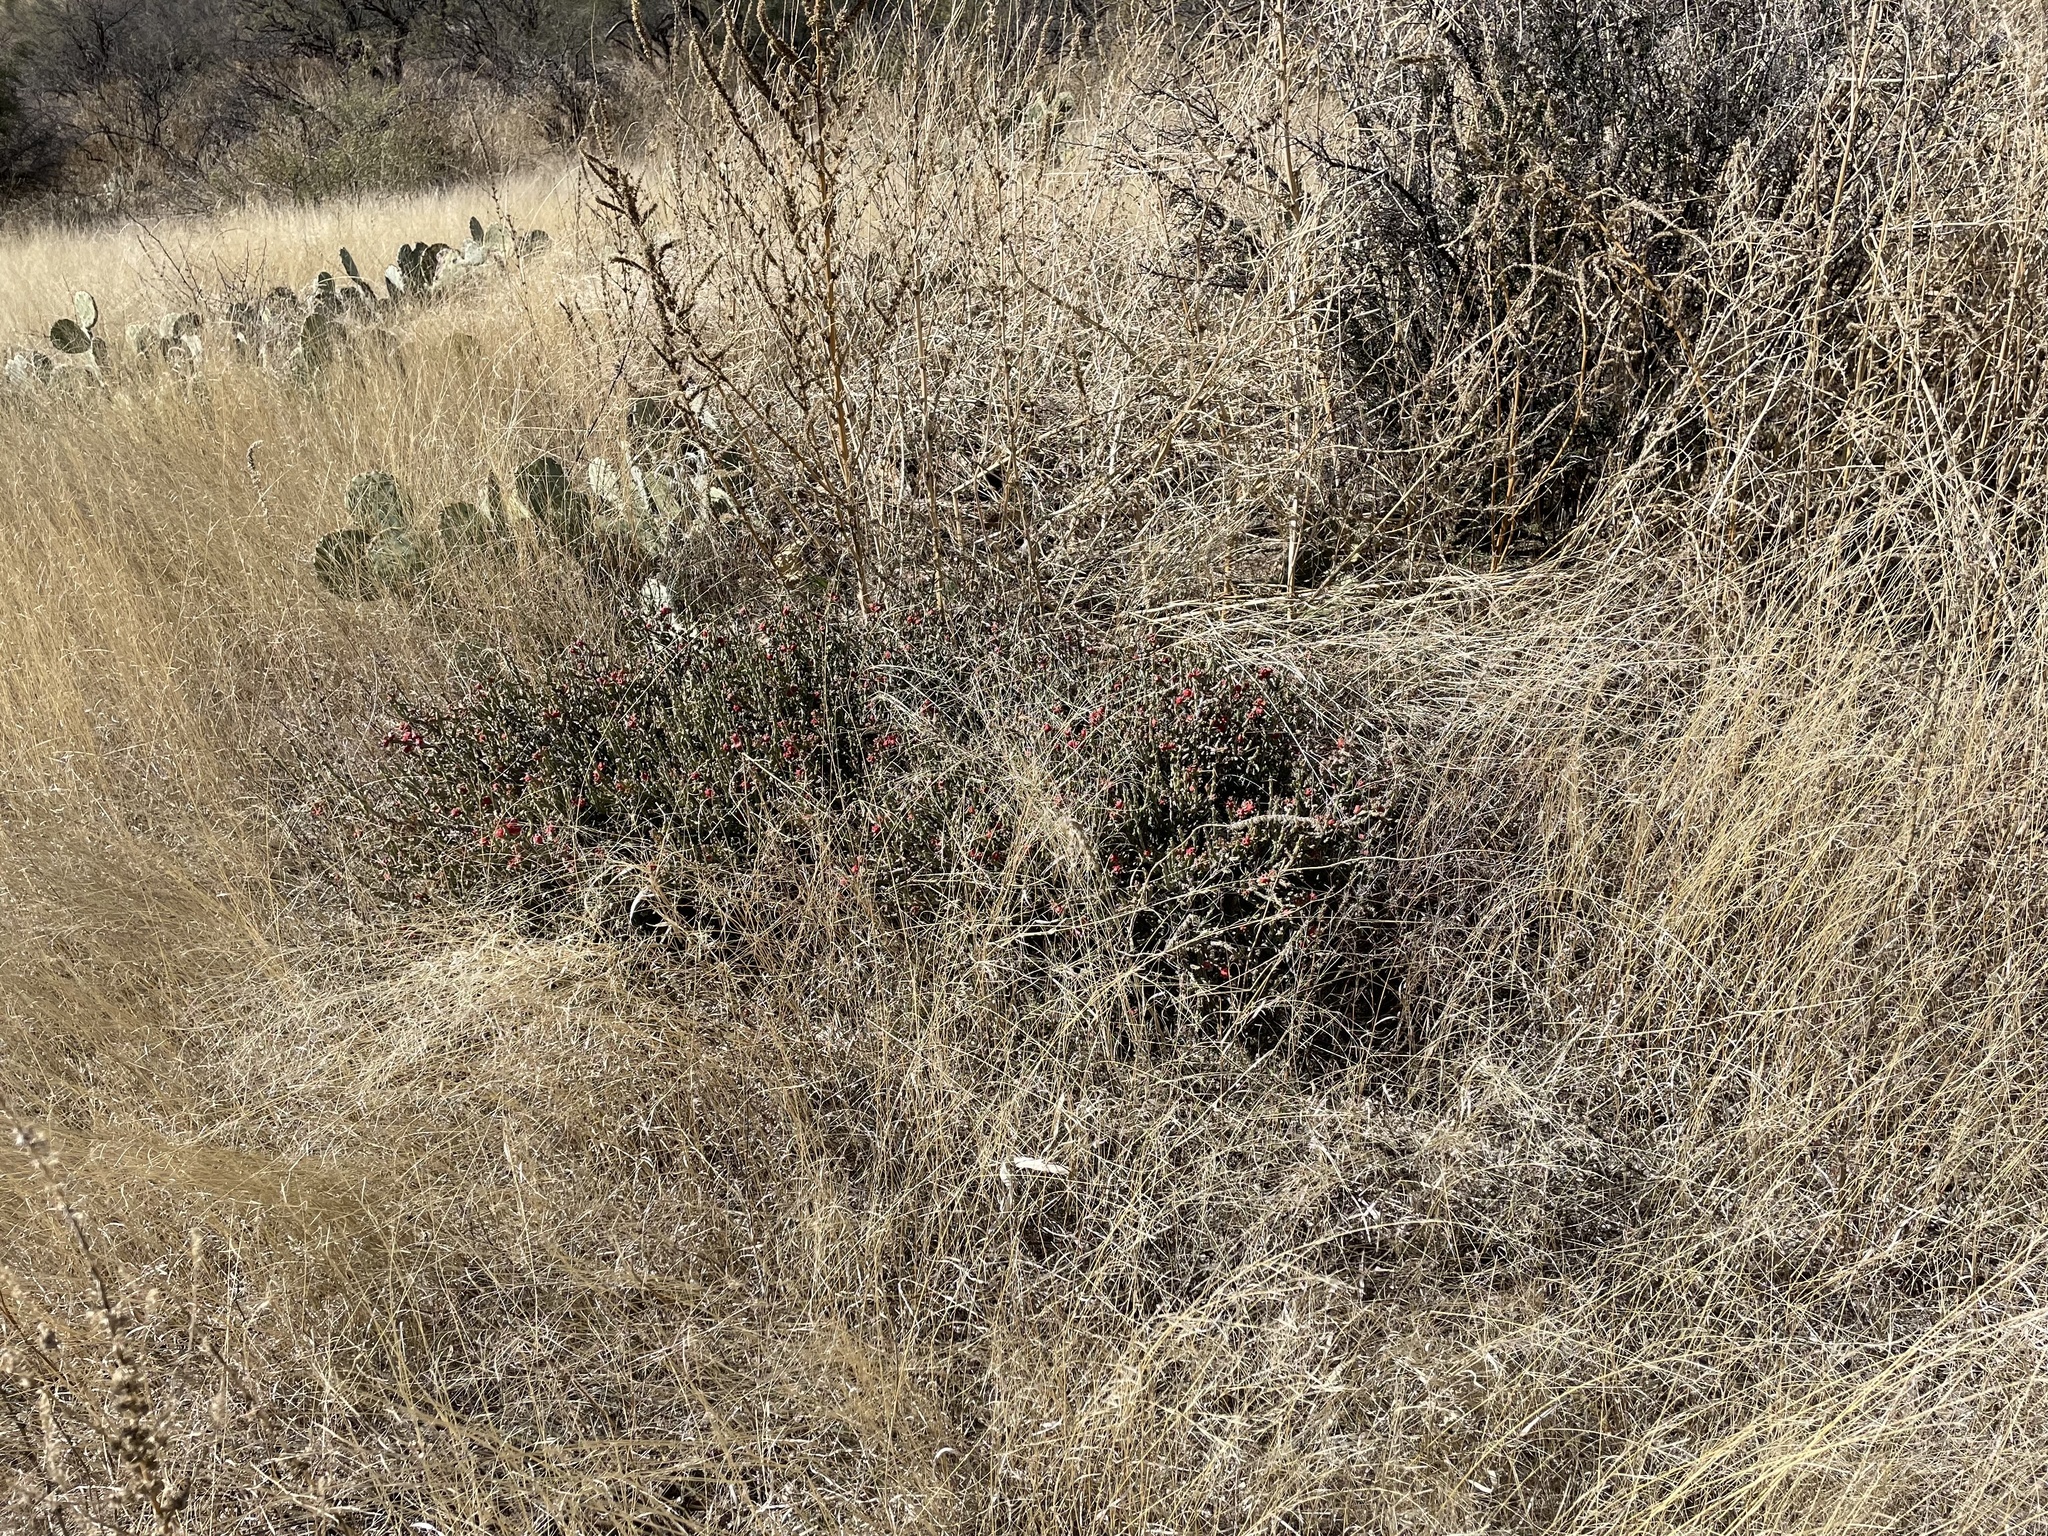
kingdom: Plantae
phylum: Tracheophyta
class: Magnoliopsida
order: Caryophyllales
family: Cactaceae
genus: Cylindropuntia
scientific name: Cylindropuntia leptocaulis
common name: Christmas cactus
